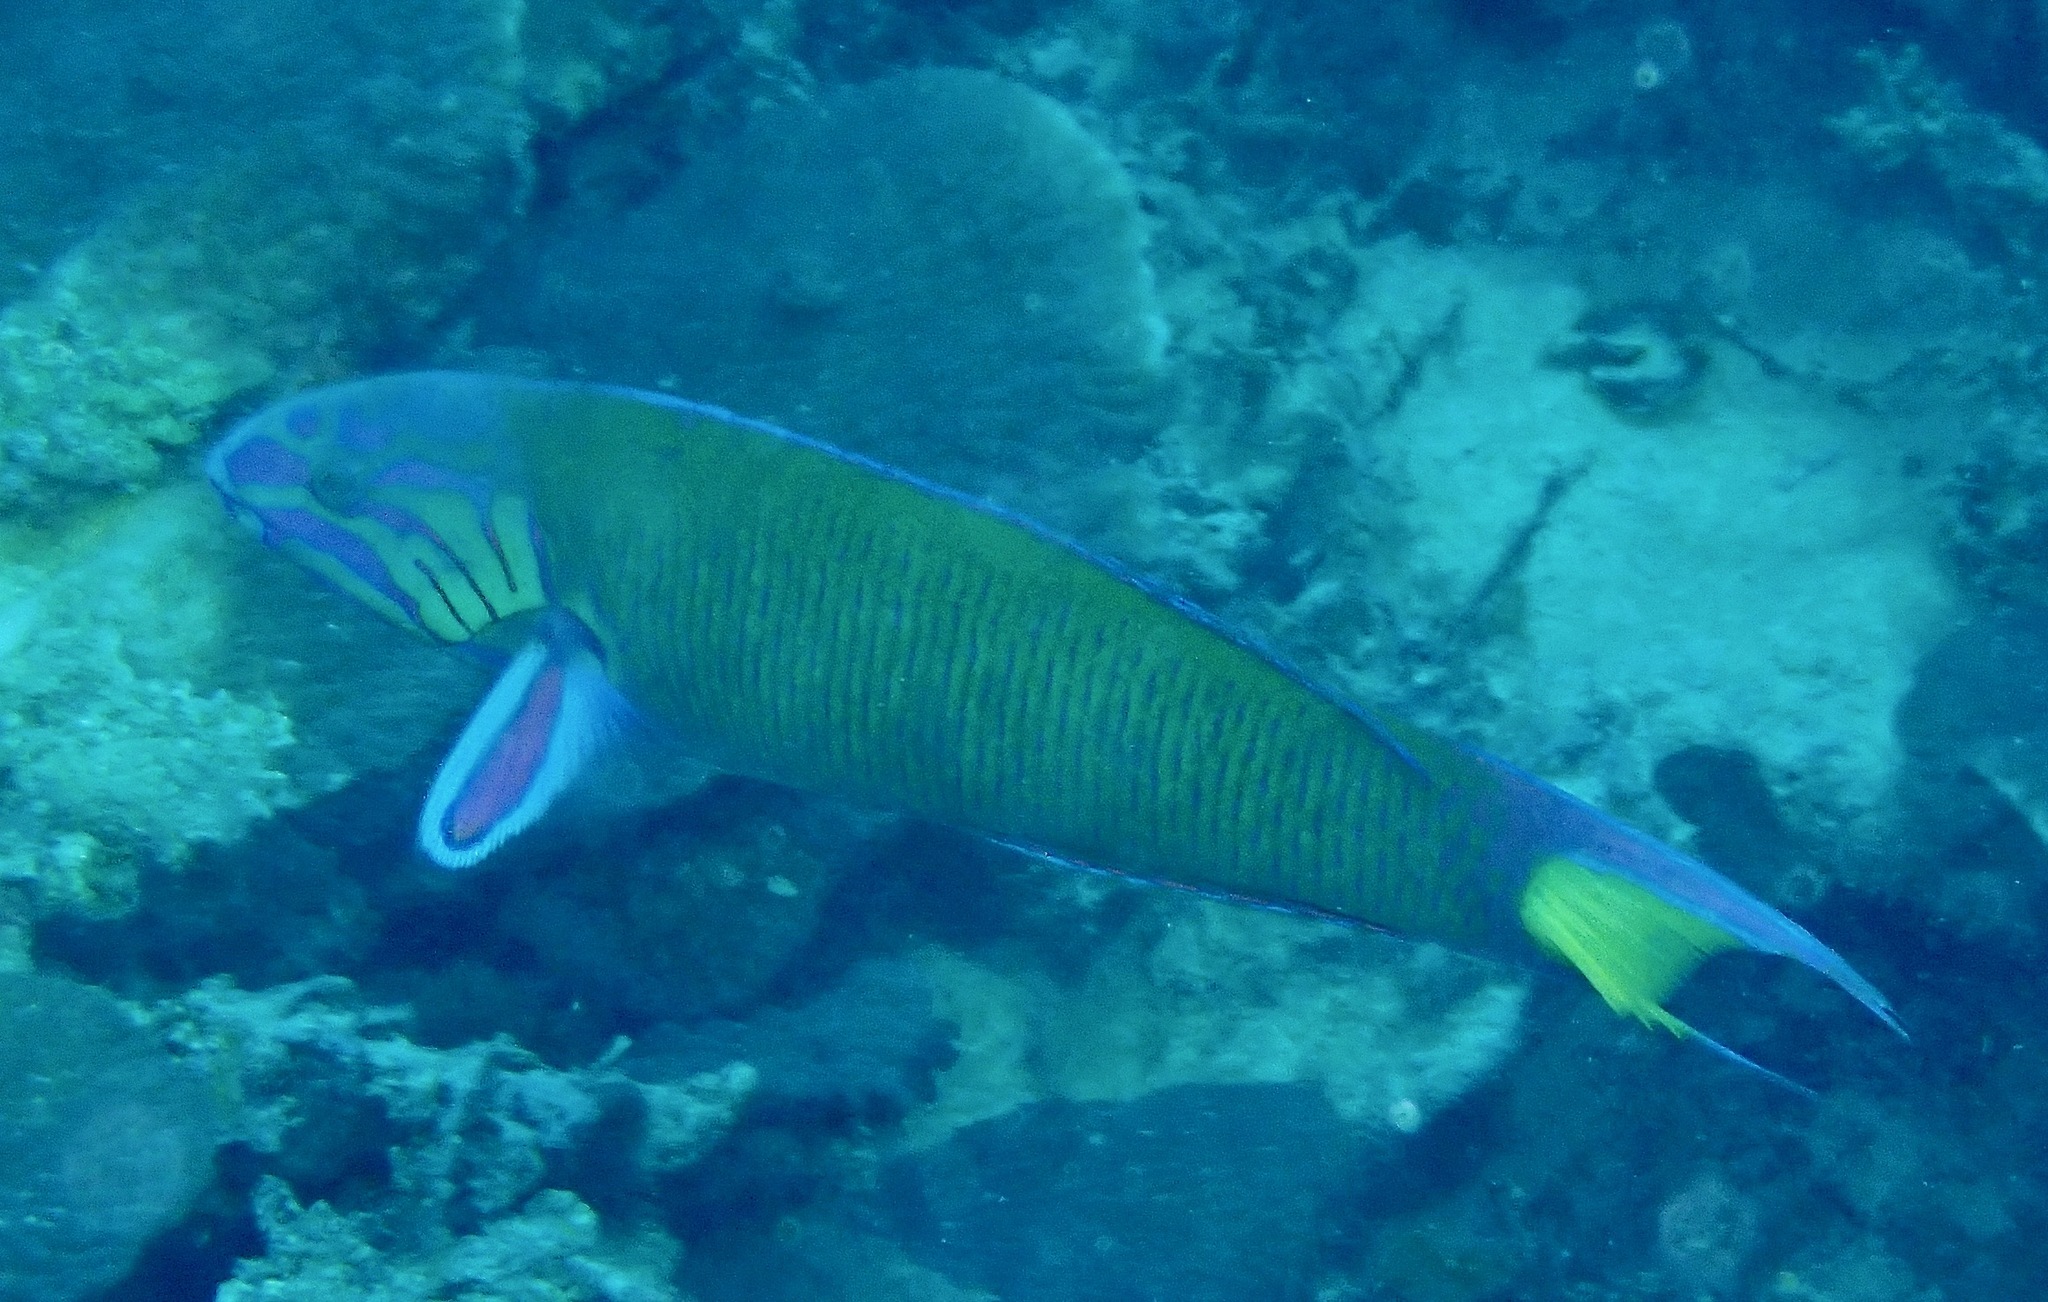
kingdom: Animalia
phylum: Chordata
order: Perciformes
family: Labridae
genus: Thalassoma
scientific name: Thalassoma lunare
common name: Blue wrasse
